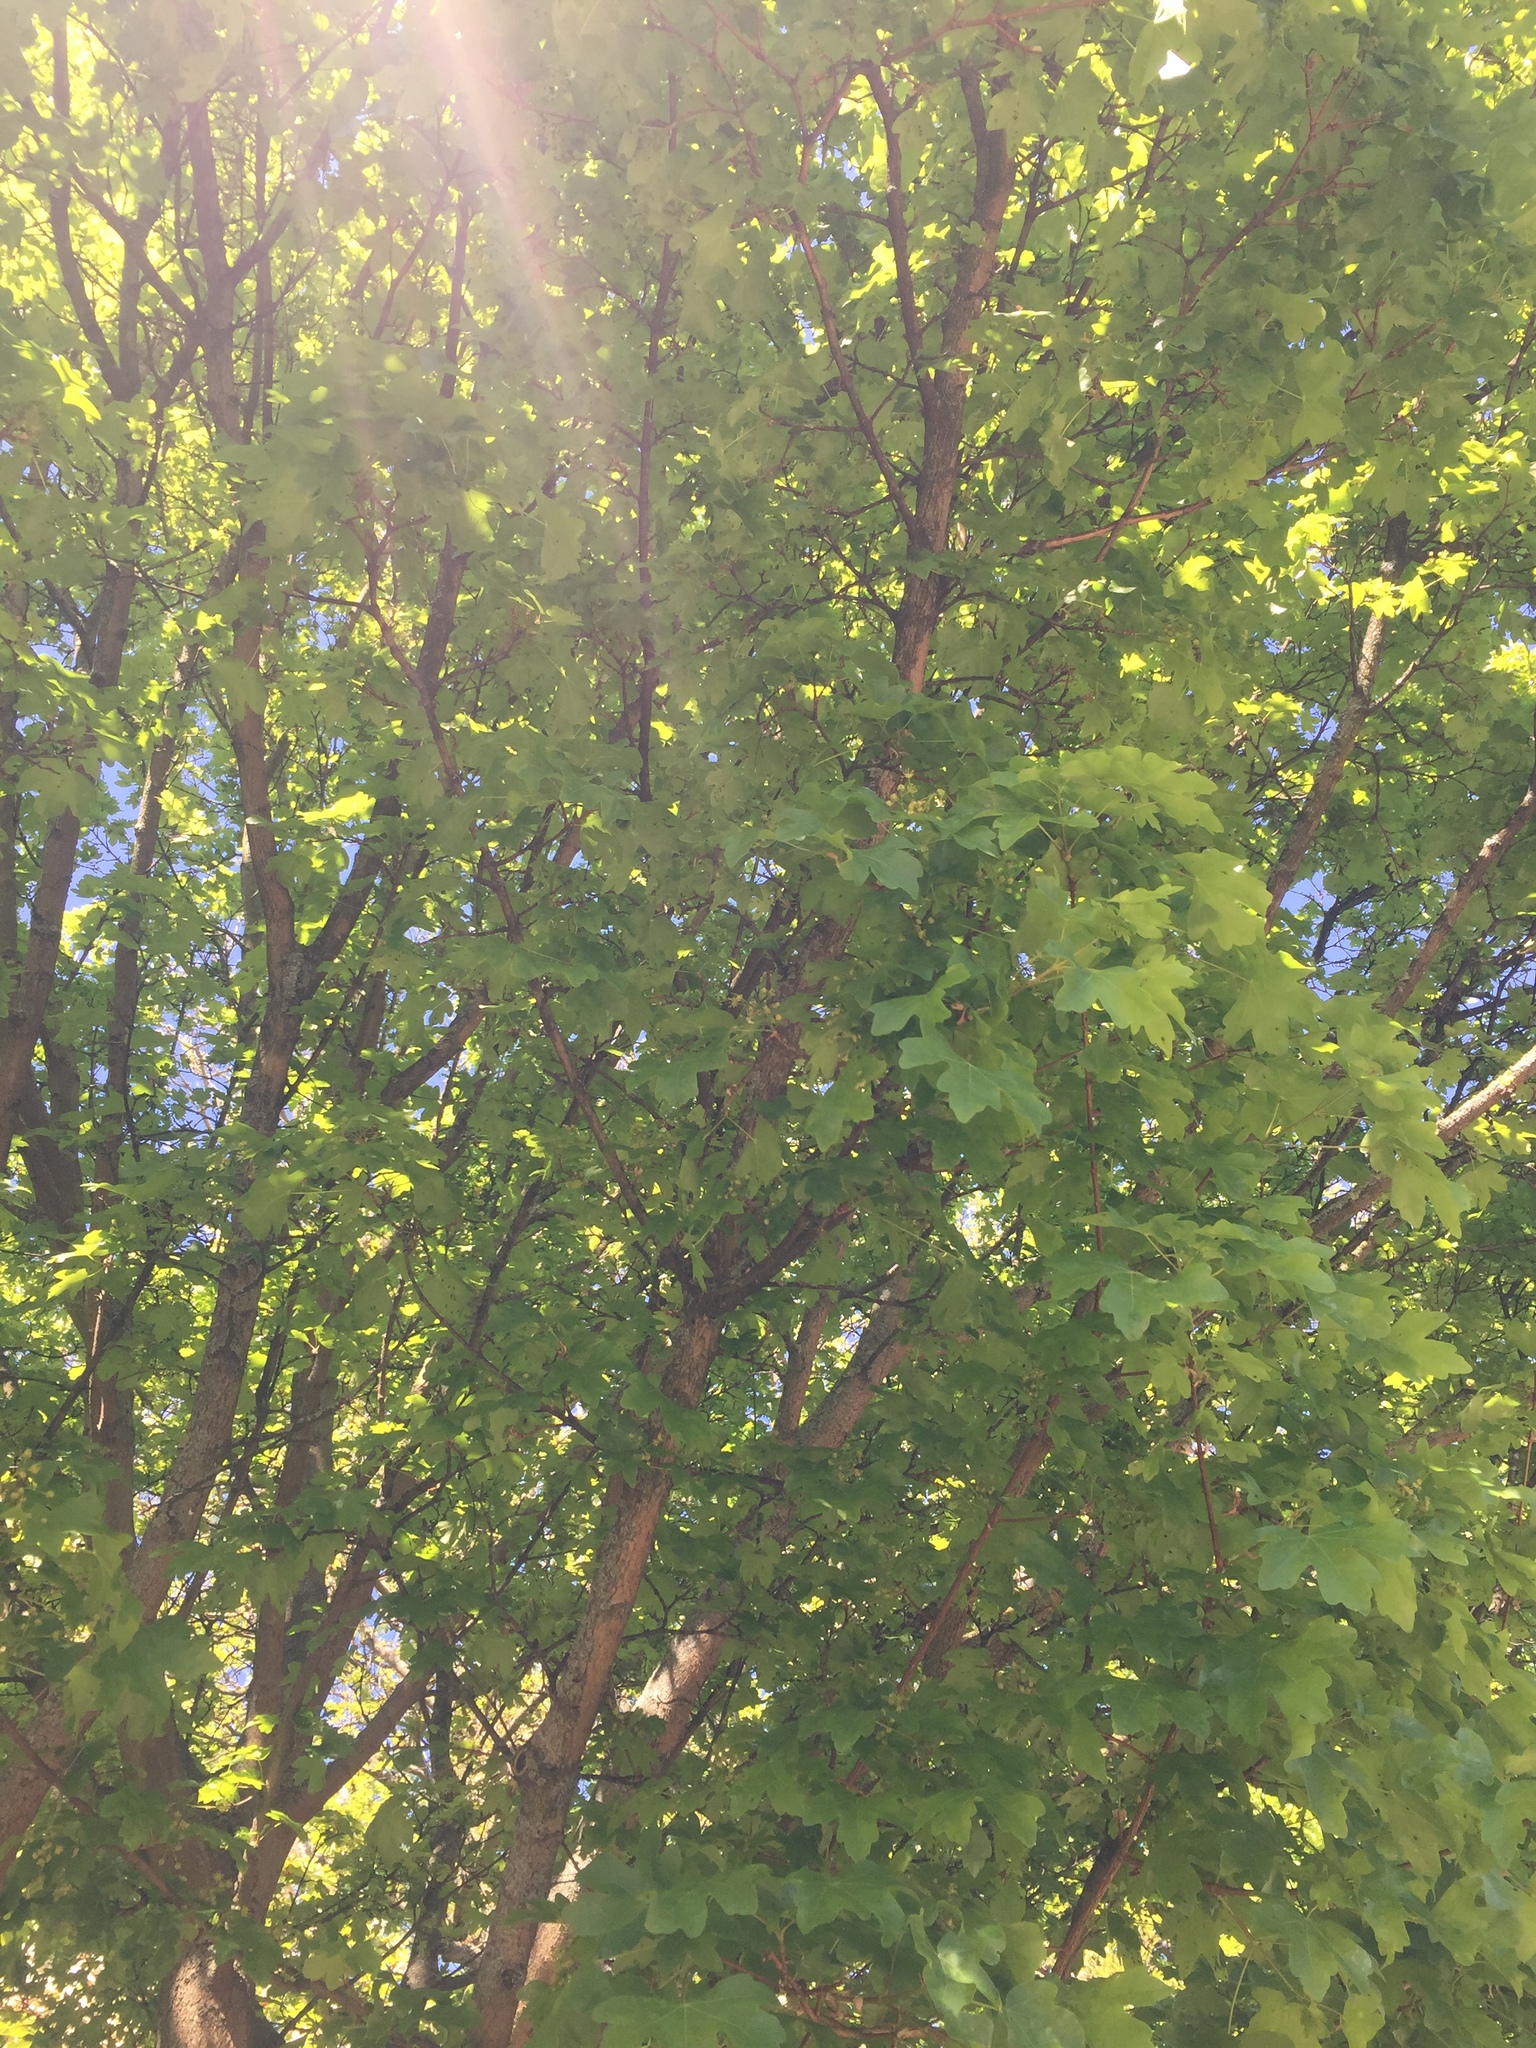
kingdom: Plantae
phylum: Tracheophyta
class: Magnoliopsida
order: Sapindales
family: Sapindaceae
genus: Acer
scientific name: Acer campestre
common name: Field maple
